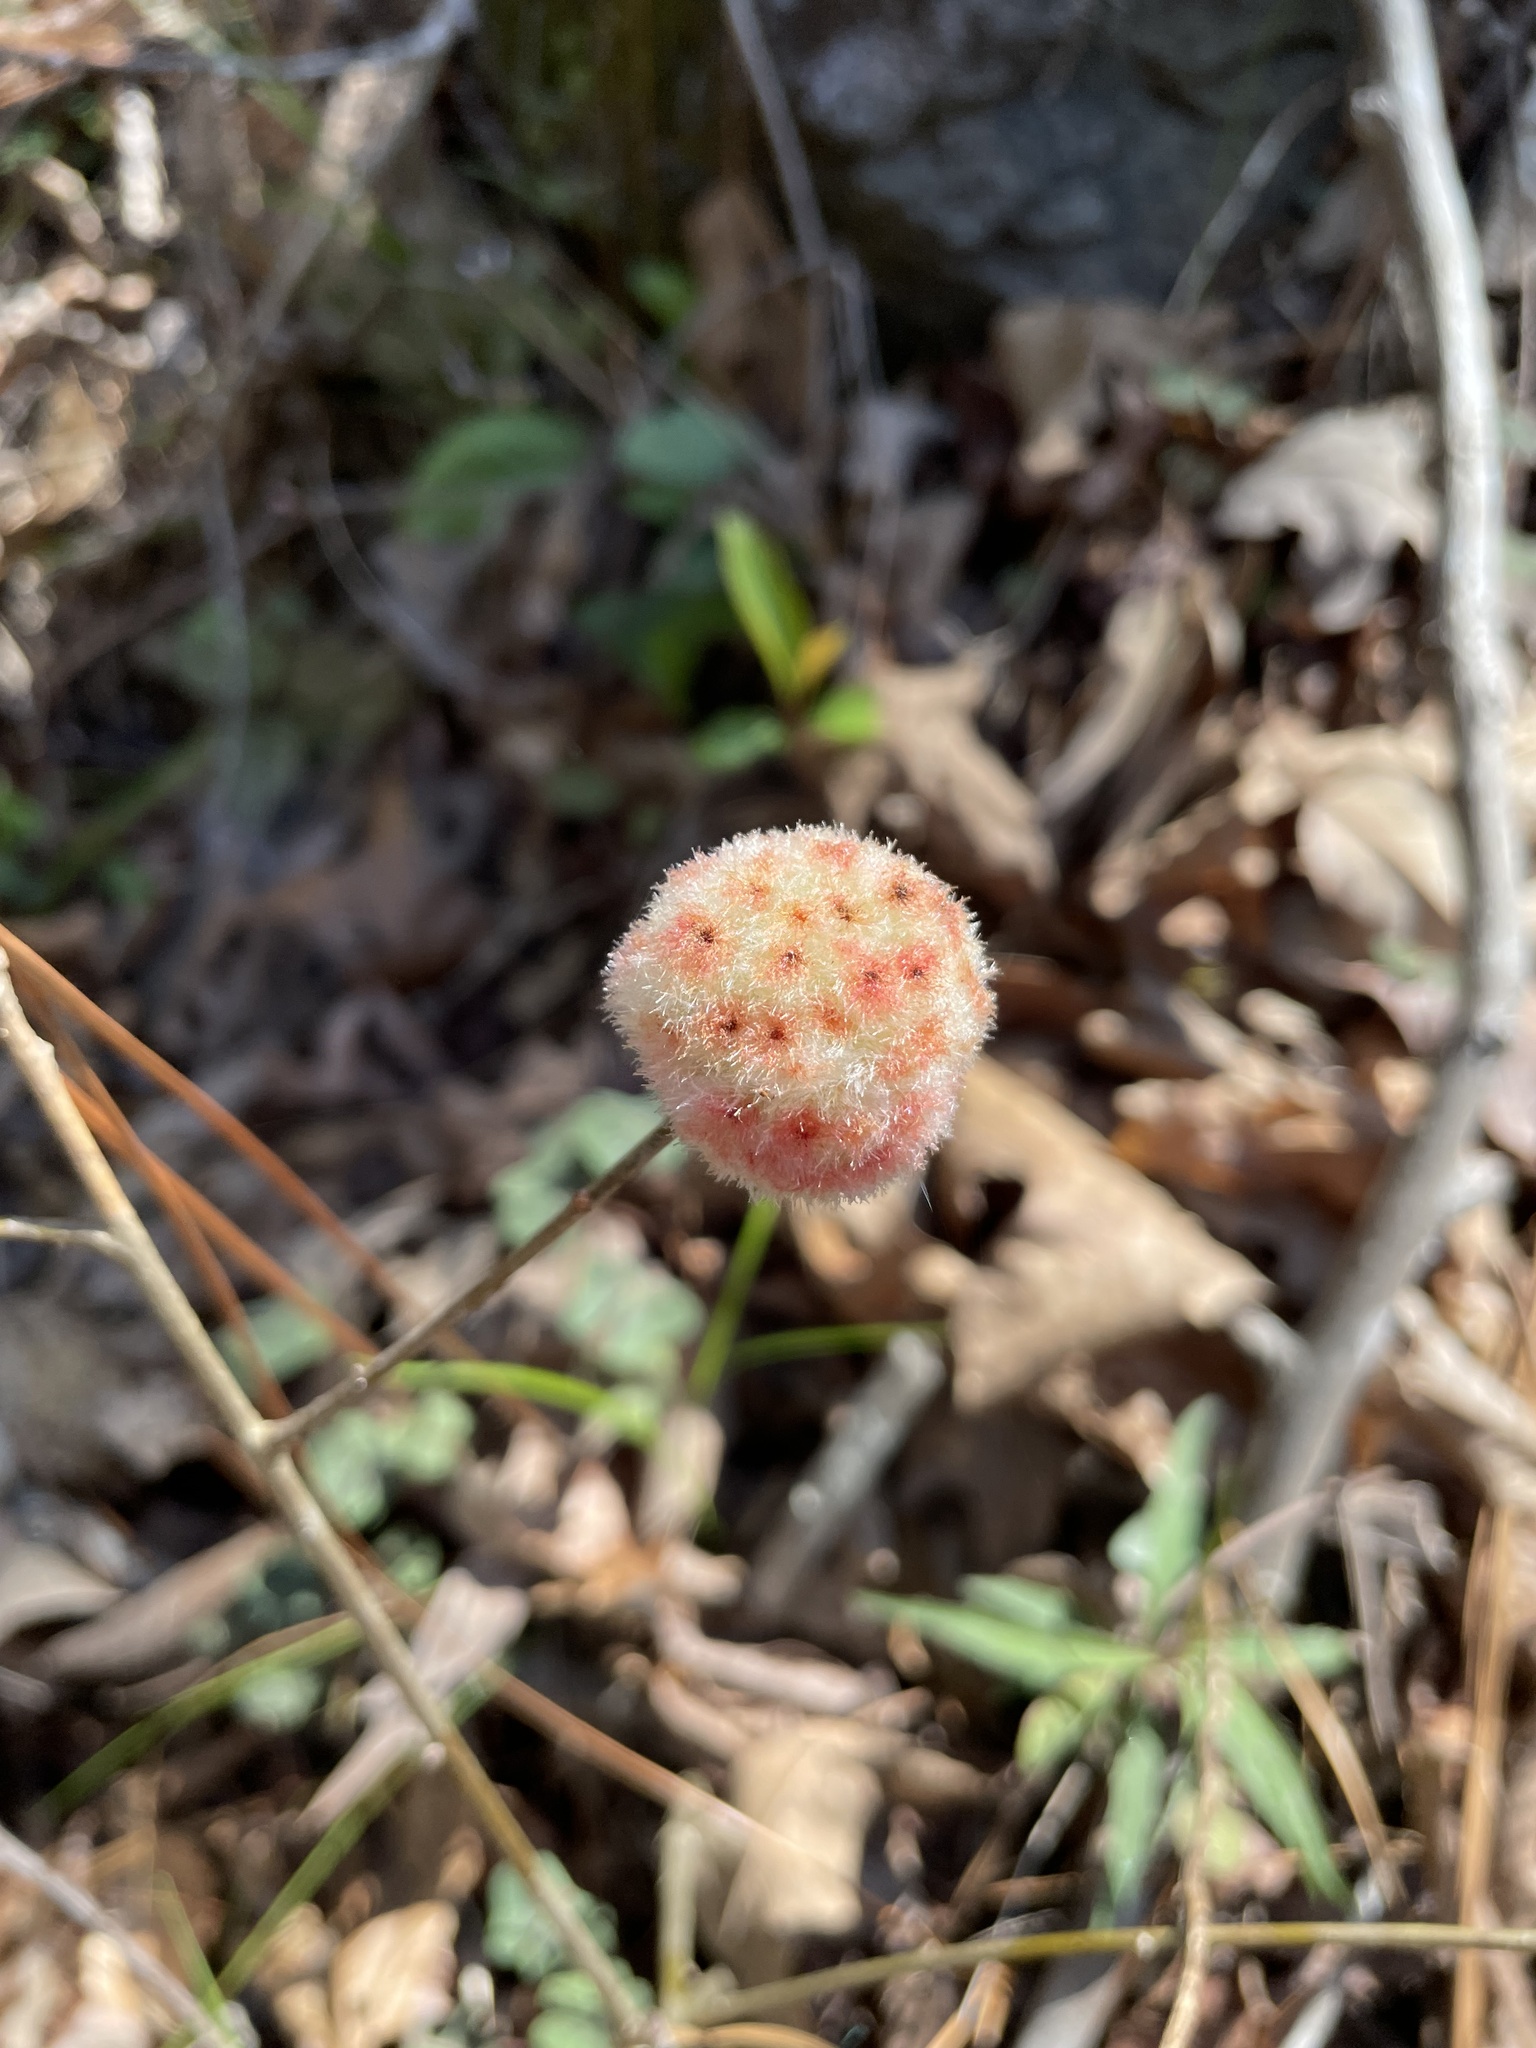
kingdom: Animalia
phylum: Arthropoda
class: Insecta
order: Hymenoptera
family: Cynipidae
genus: Callirhytis
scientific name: Callirhytis
